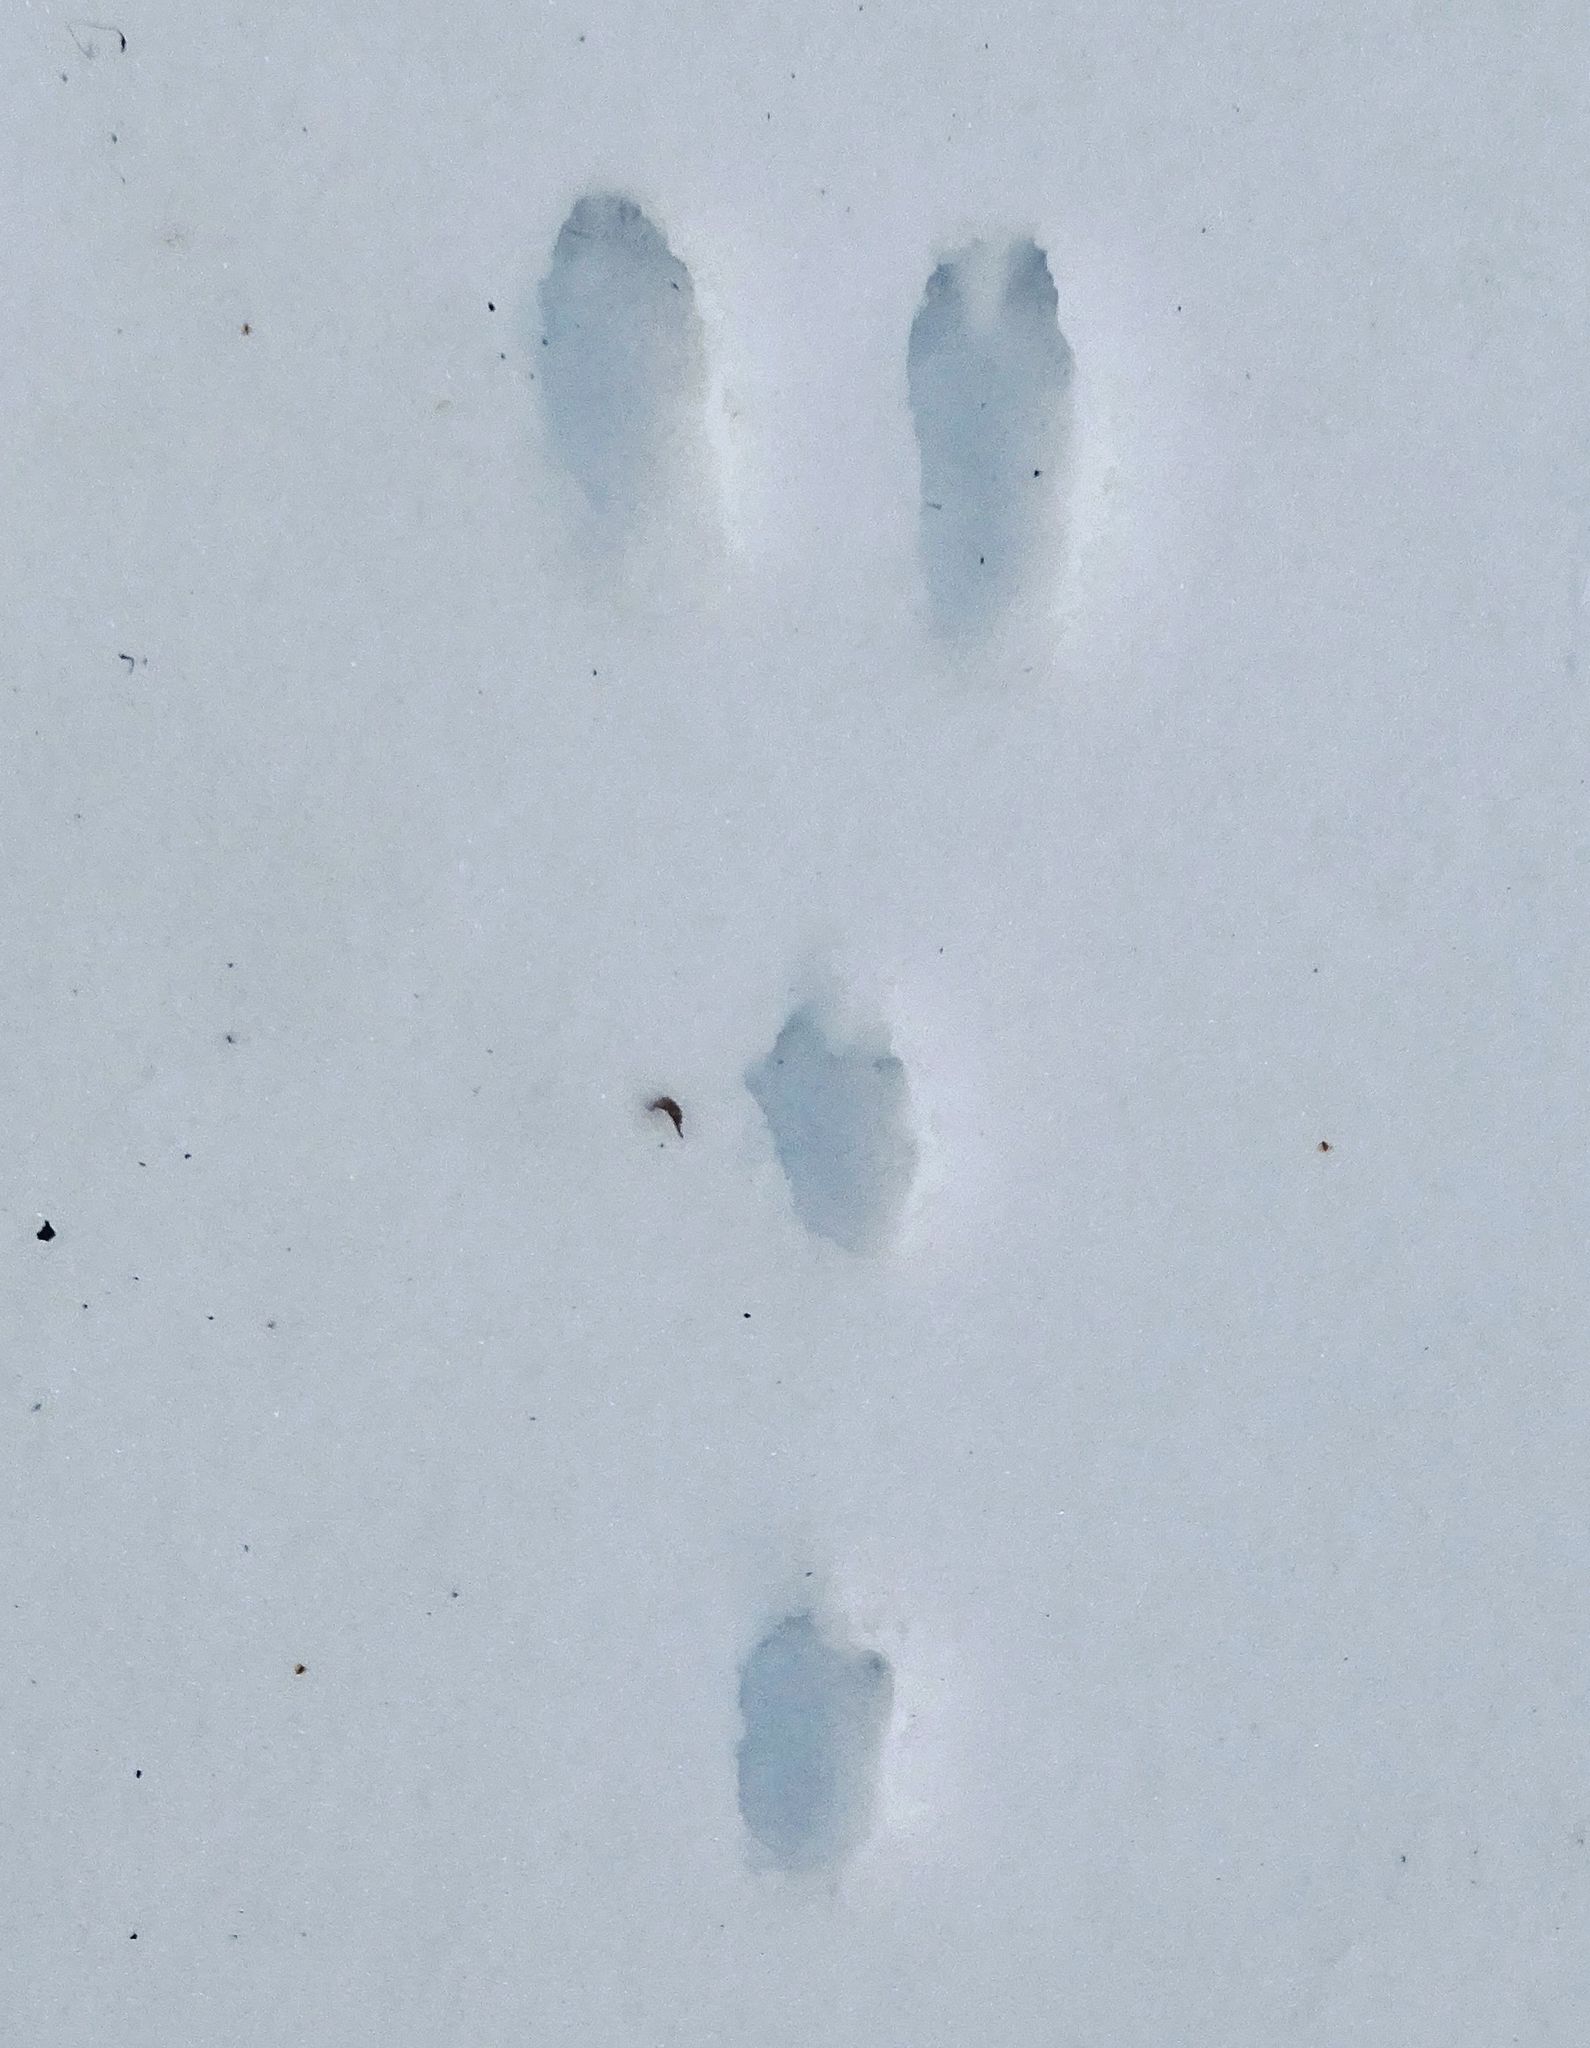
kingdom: Animalia
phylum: Chordata
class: Mammalia
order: Lagomorpha
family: Leporidae
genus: Sylvilagus
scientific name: Sylvilagus floridanus
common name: Eastern cottontail
